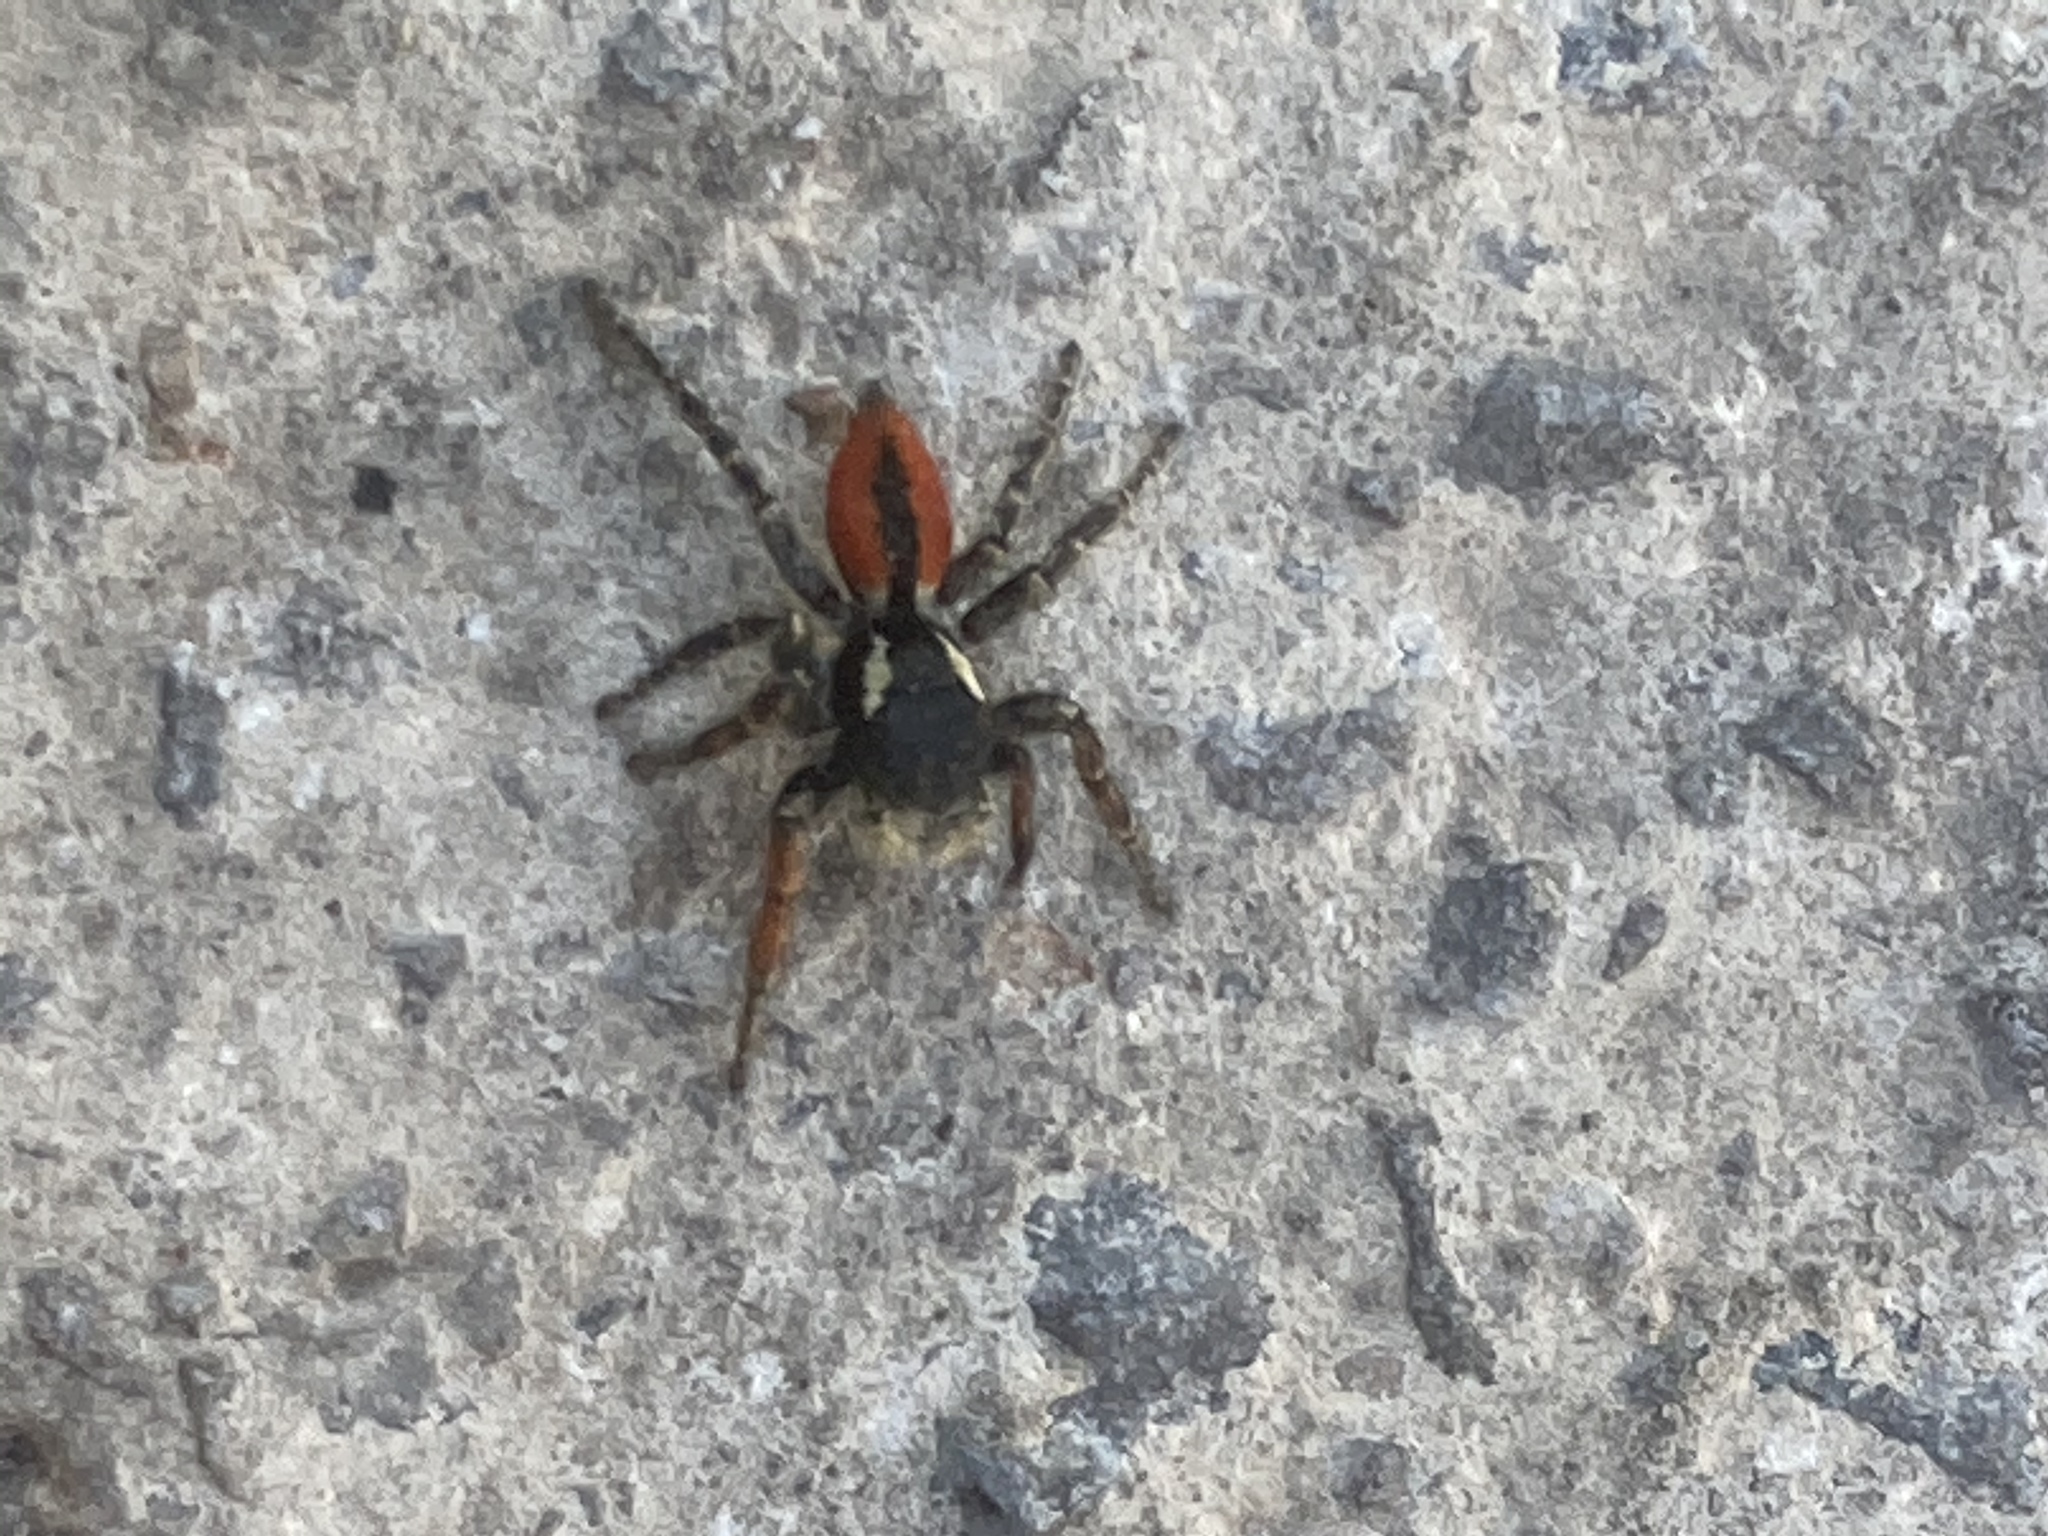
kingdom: Animalia
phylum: Arthropoda
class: Arachnida
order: Araneae
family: Salticidae
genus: Philaeus
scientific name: Philaeus chrysops
